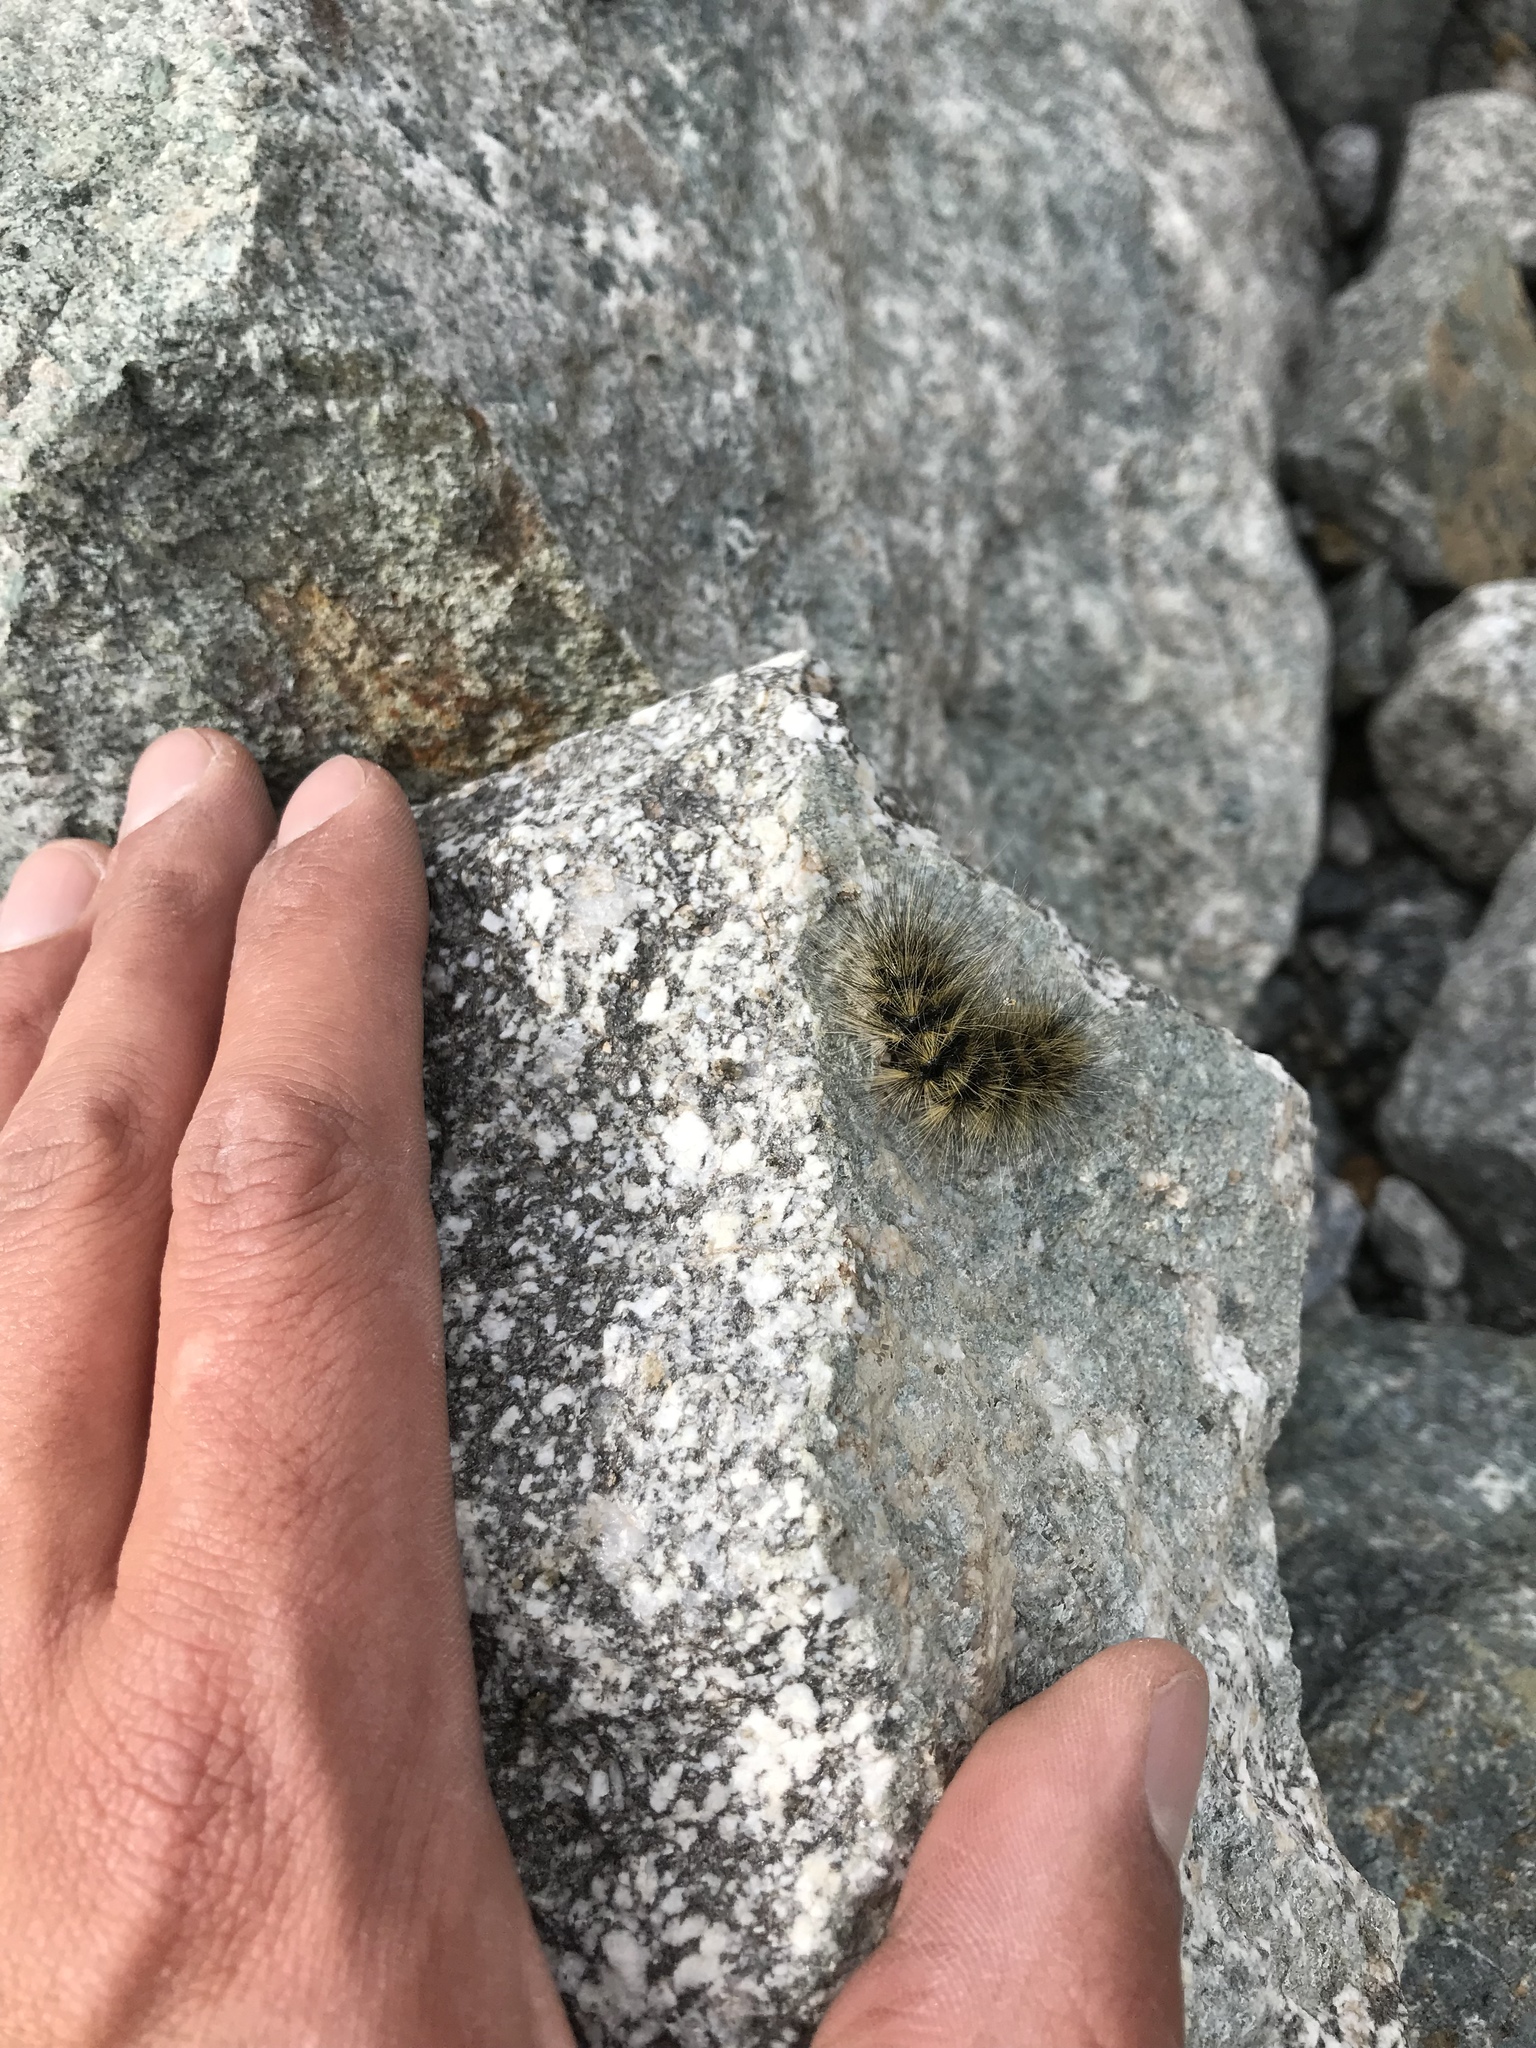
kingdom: Animalia
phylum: Arthropoda
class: Insecta
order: Lepidoptera
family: Erebidae
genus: Arctia
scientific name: Arctia flavia
